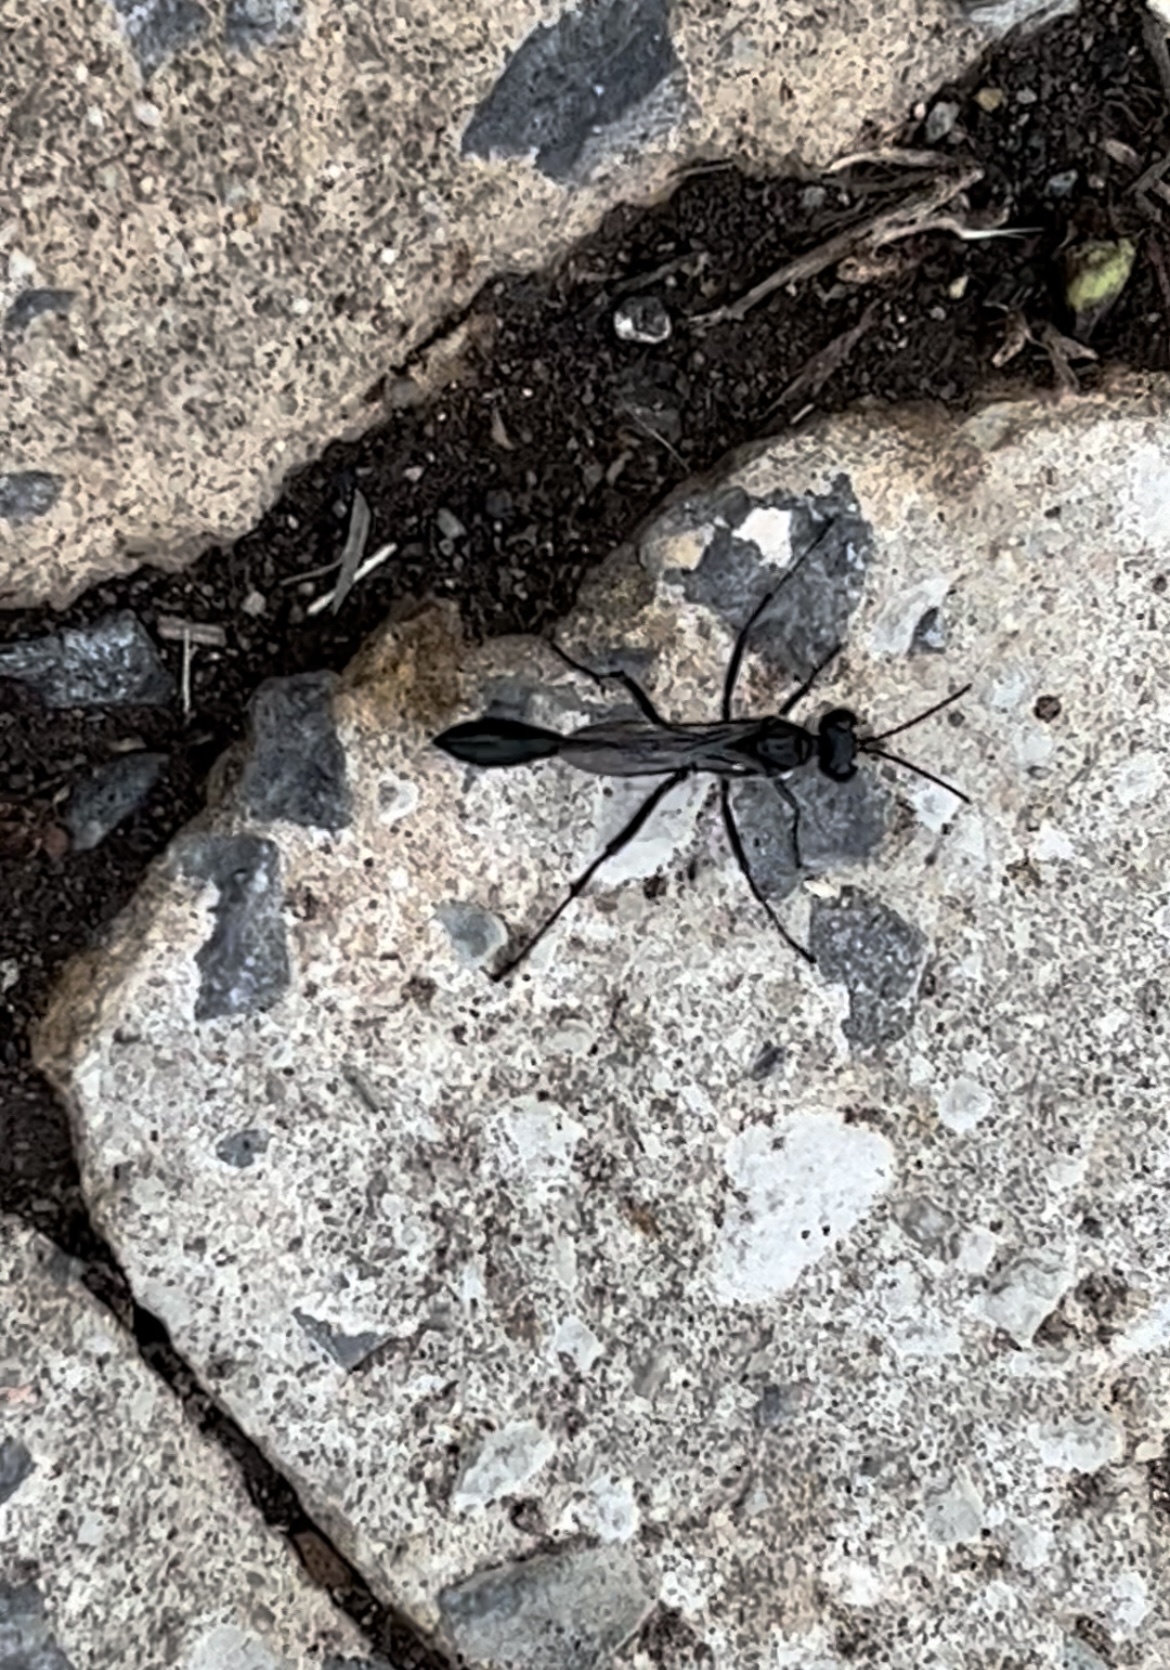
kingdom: Animalia
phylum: Arthropoda
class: Insecta
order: Hymenoptera
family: Sphecidae
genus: Eremnophila
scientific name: Eremnophila aureonotata
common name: Gold-marked thread-waisted wasp
